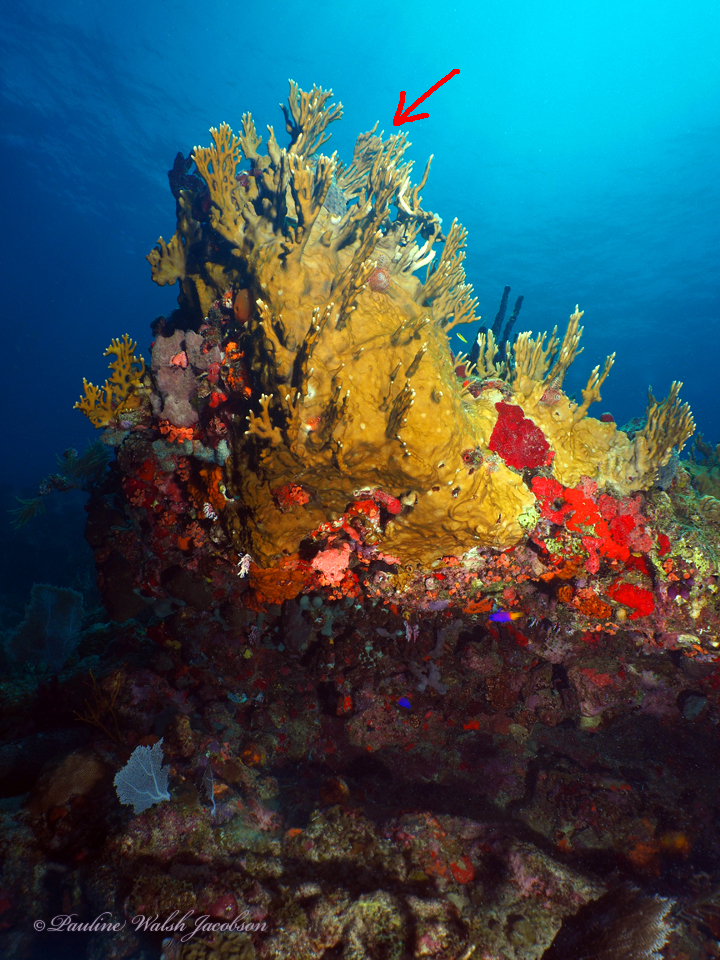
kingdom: Animalia
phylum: Cnidaria
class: Hydrozoa
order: Anthoathecata
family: Milleporidae
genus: Millepora
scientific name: Millepora alcicornis
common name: Branching fire coral
